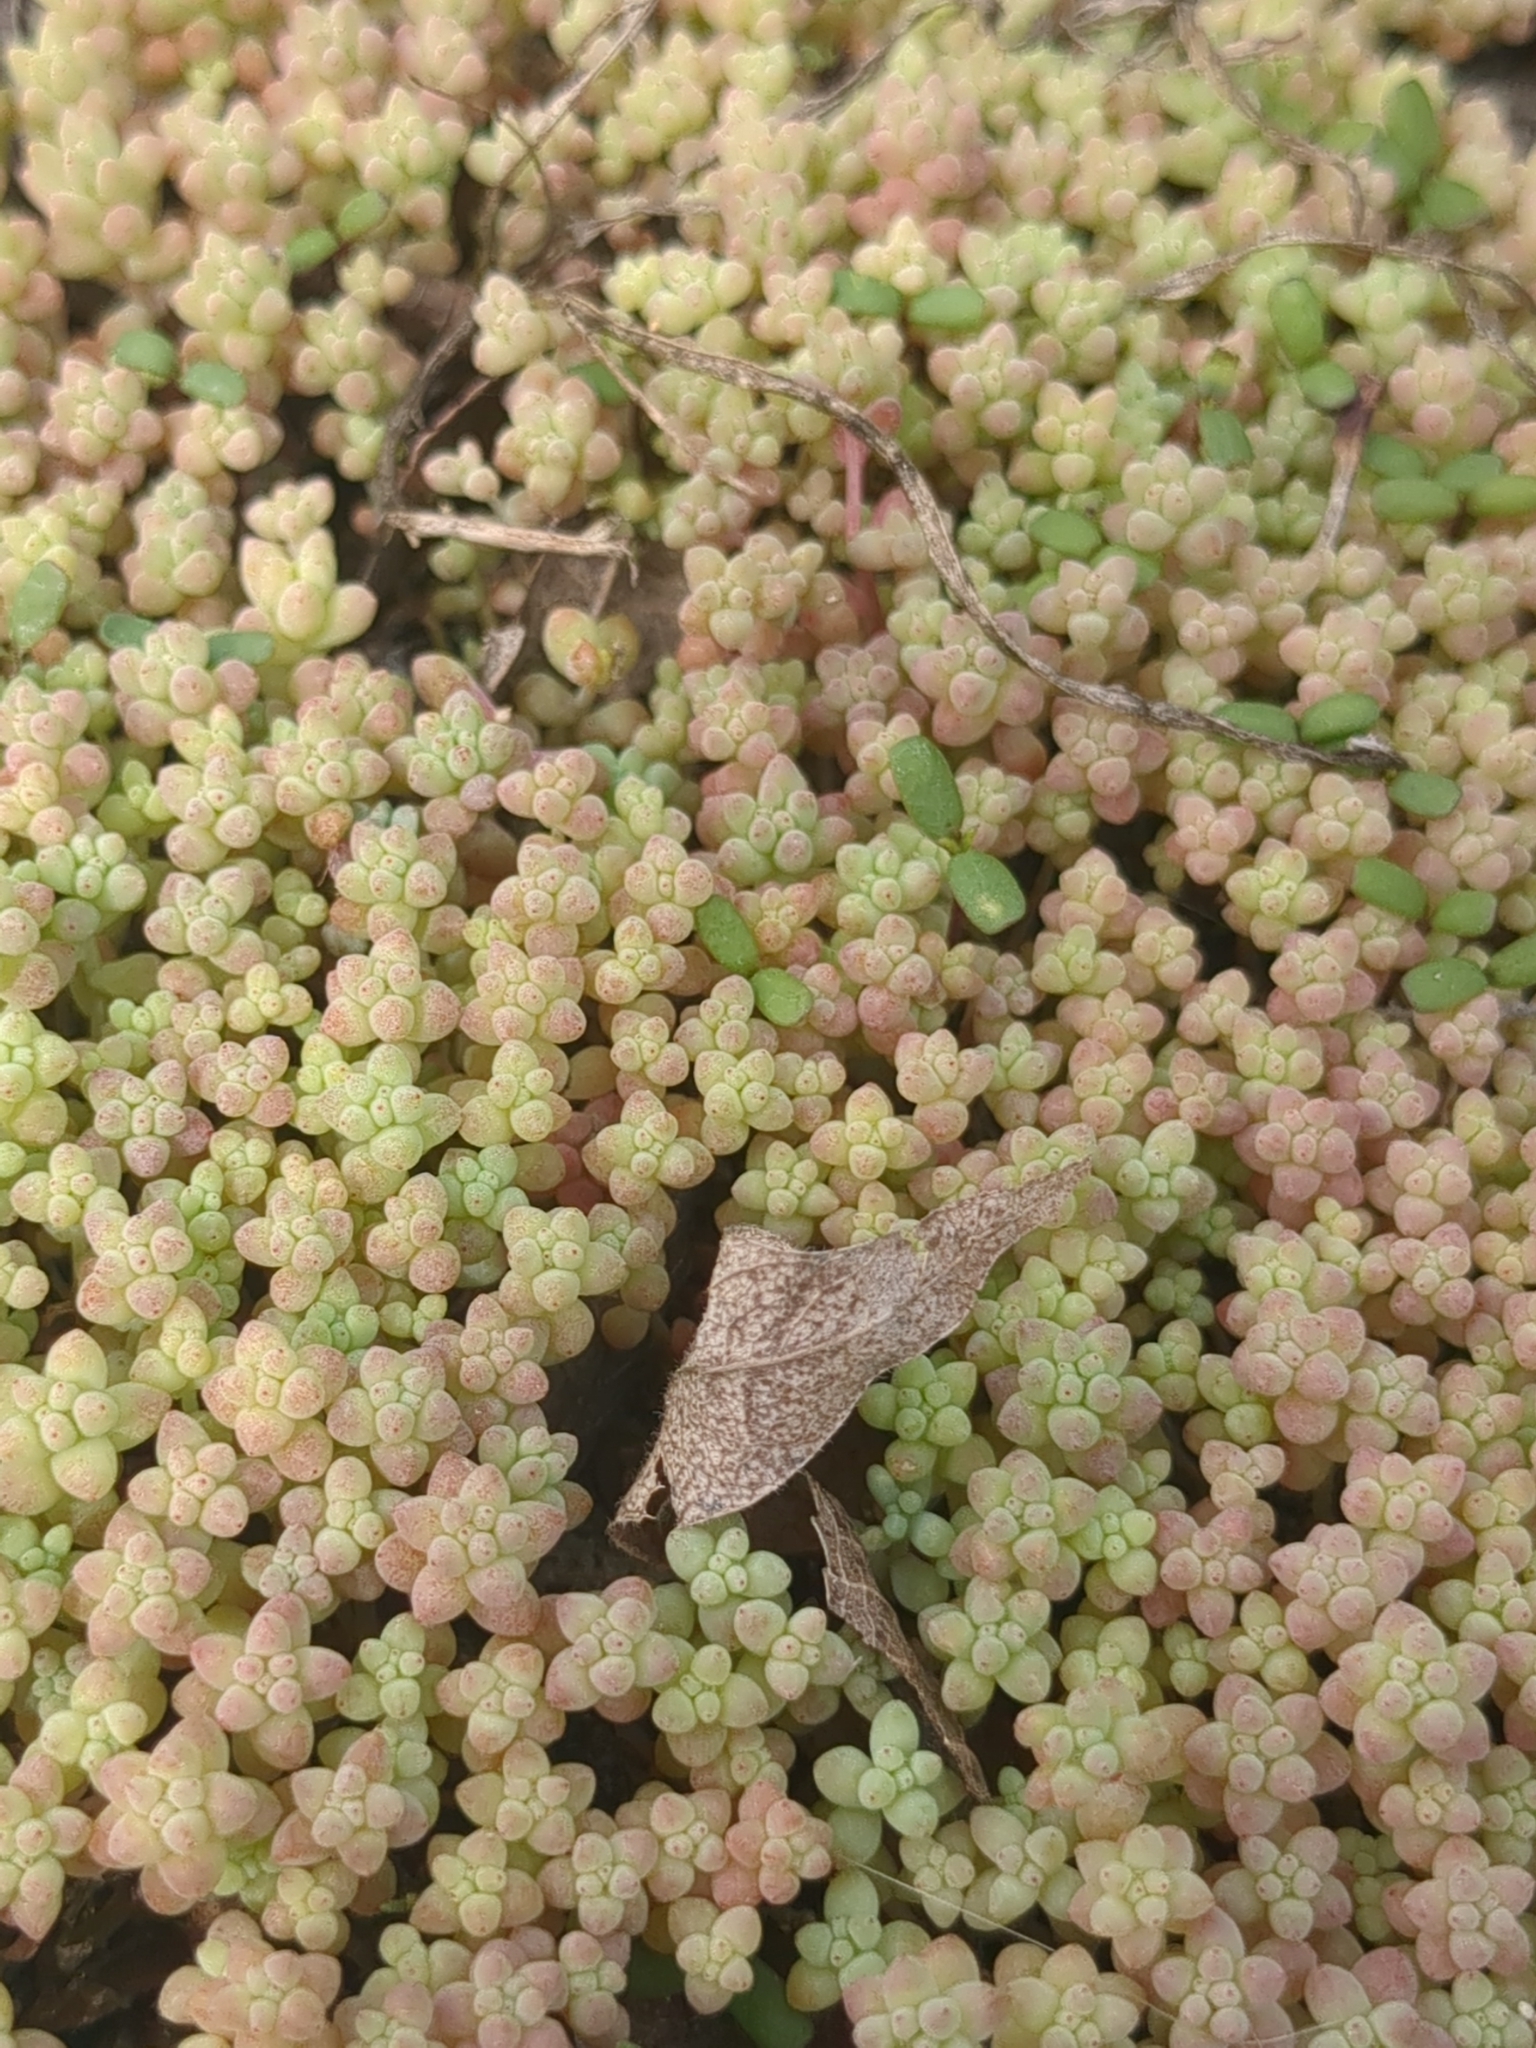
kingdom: Plantae
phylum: Tracheophyta
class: Magnoliopsida
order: Saxifragales
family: Crassulaceae
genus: Sedum
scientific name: Sedum nuttallii
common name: Yellow stonecrop
